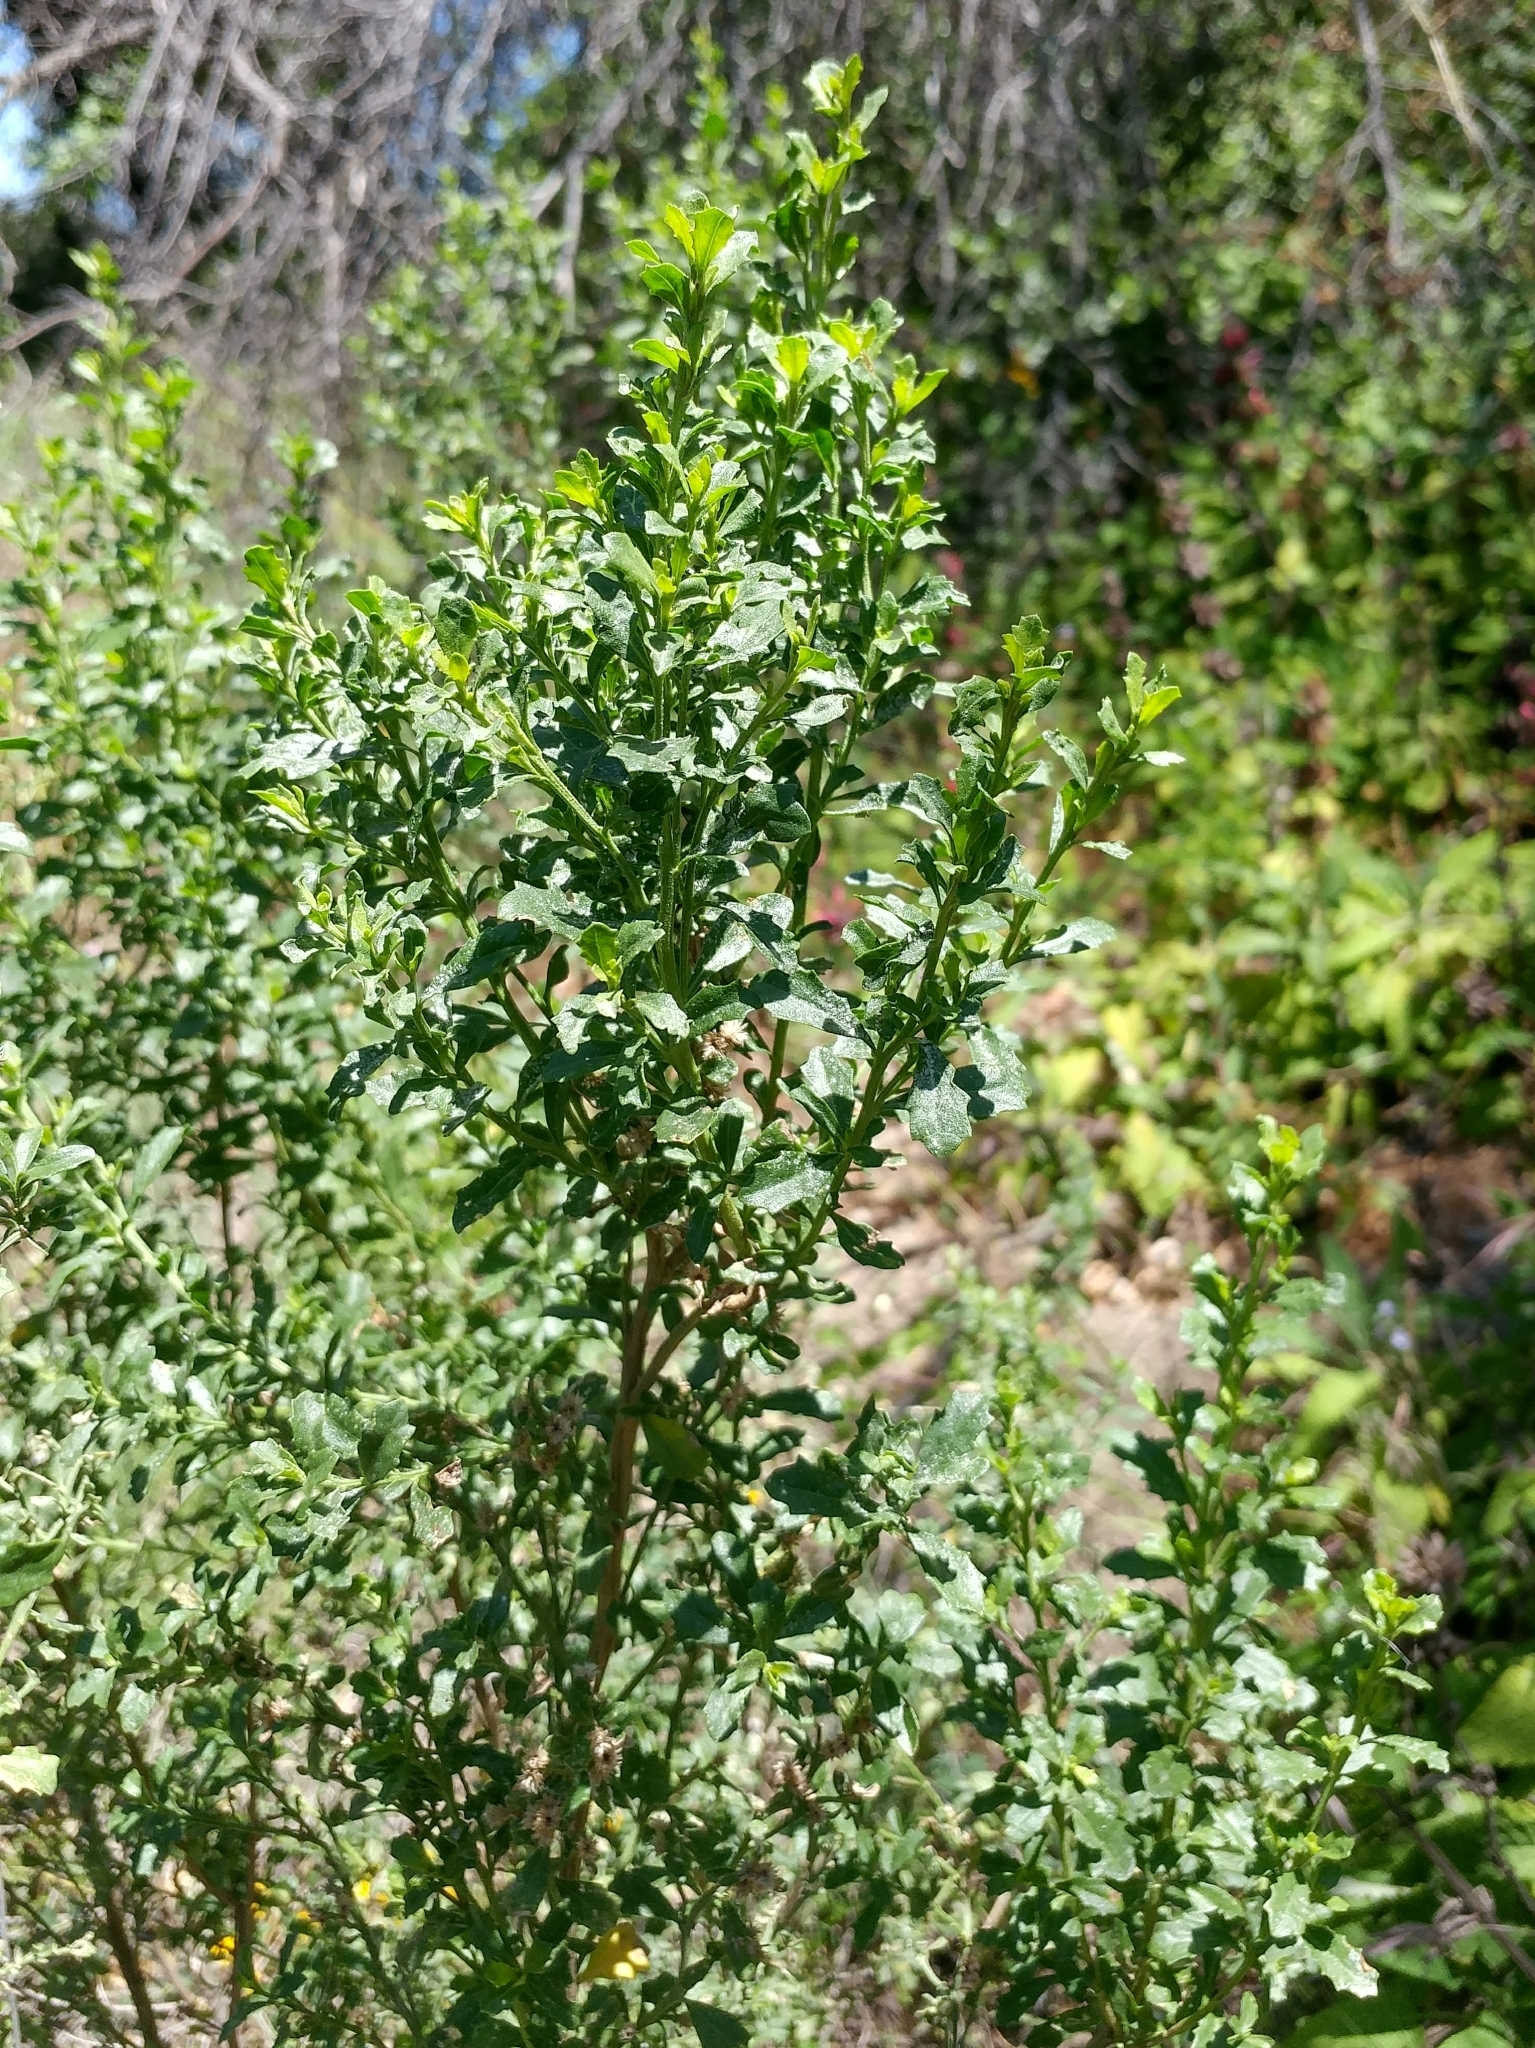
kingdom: Plantae
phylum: Tracheophyta
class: Magnoliopsida
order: Asterales
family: Asteraceae
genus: Baccharis
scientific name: Baccharis pilularis
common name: Coyotebrush
